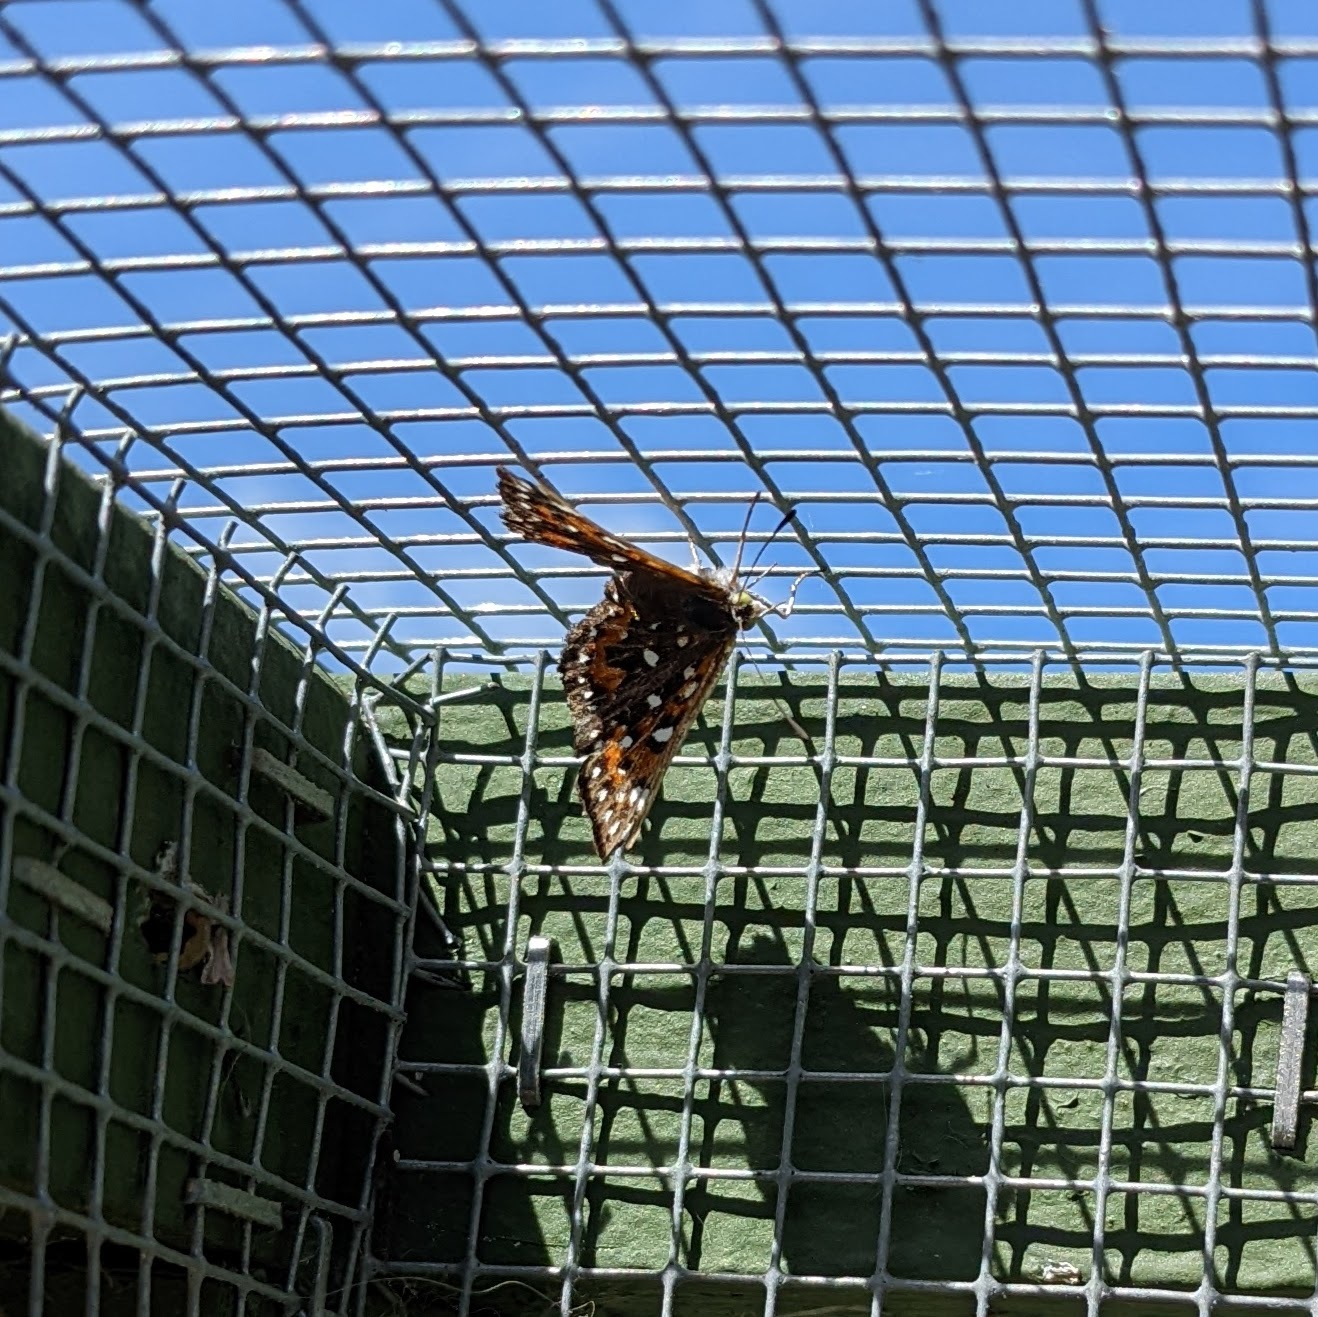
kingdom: Animalia
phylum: Arthropoda
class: Insecta
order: Lepidoptera
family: Riodinidae
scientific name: Riodinidae
